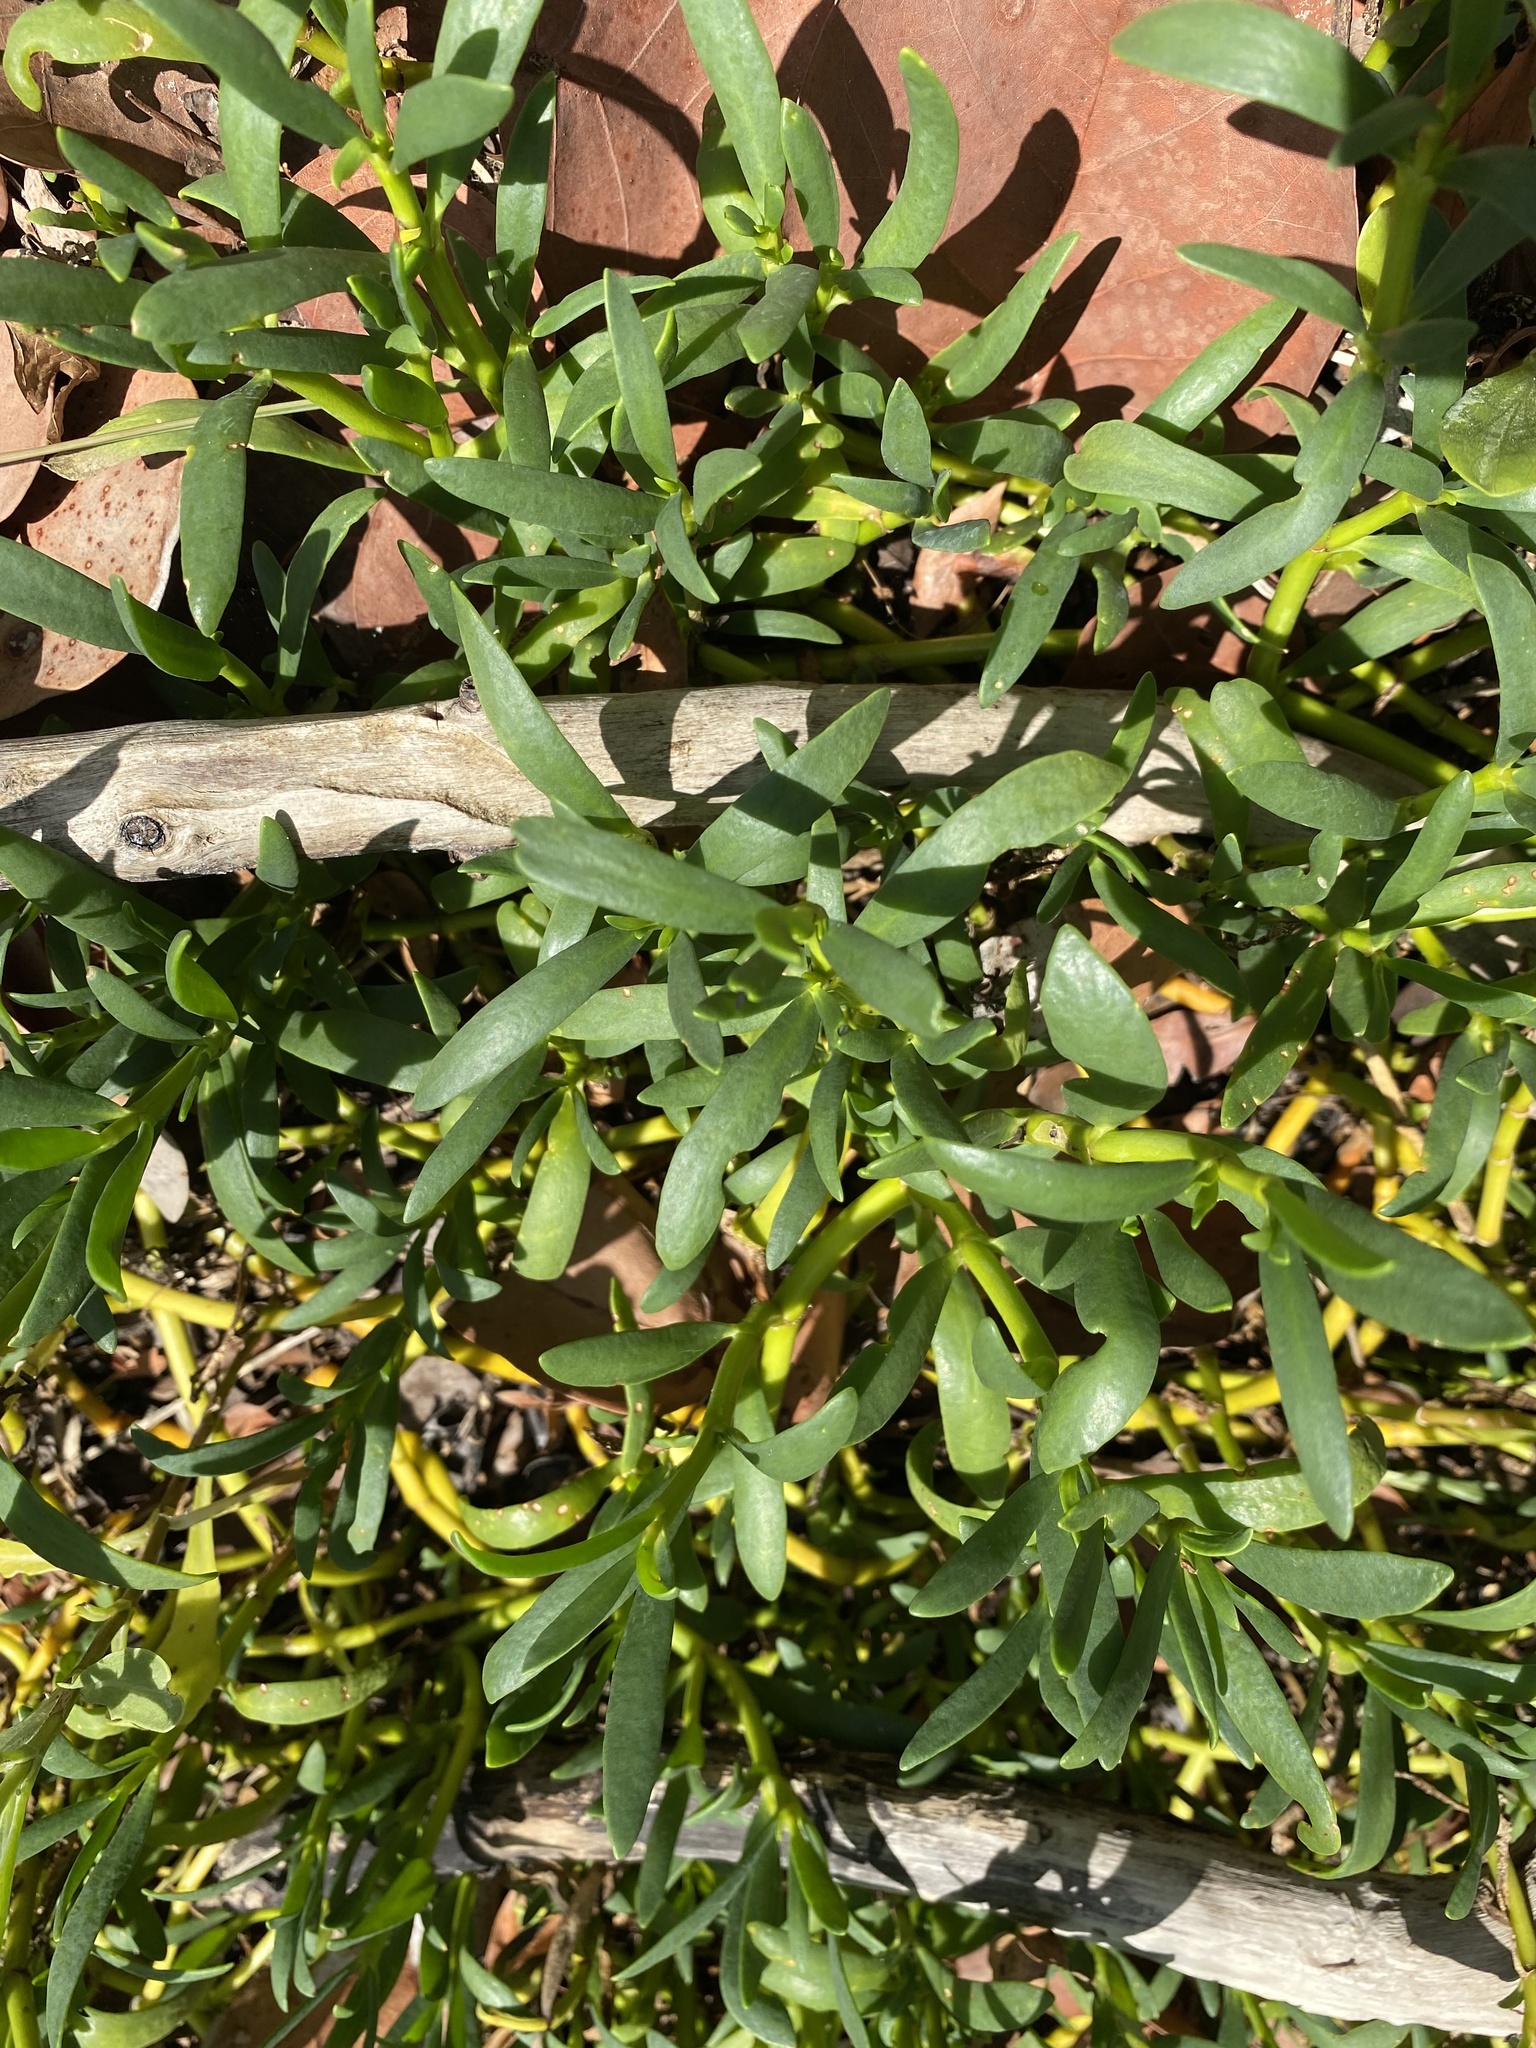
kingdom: Plantae
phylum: Tracheophyta
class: Magnoliopsida
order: Caryophyllales
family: Aizoaceae
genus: Sesuvium
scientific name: Sesuvium portulacastrum
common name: Sea-purslane
